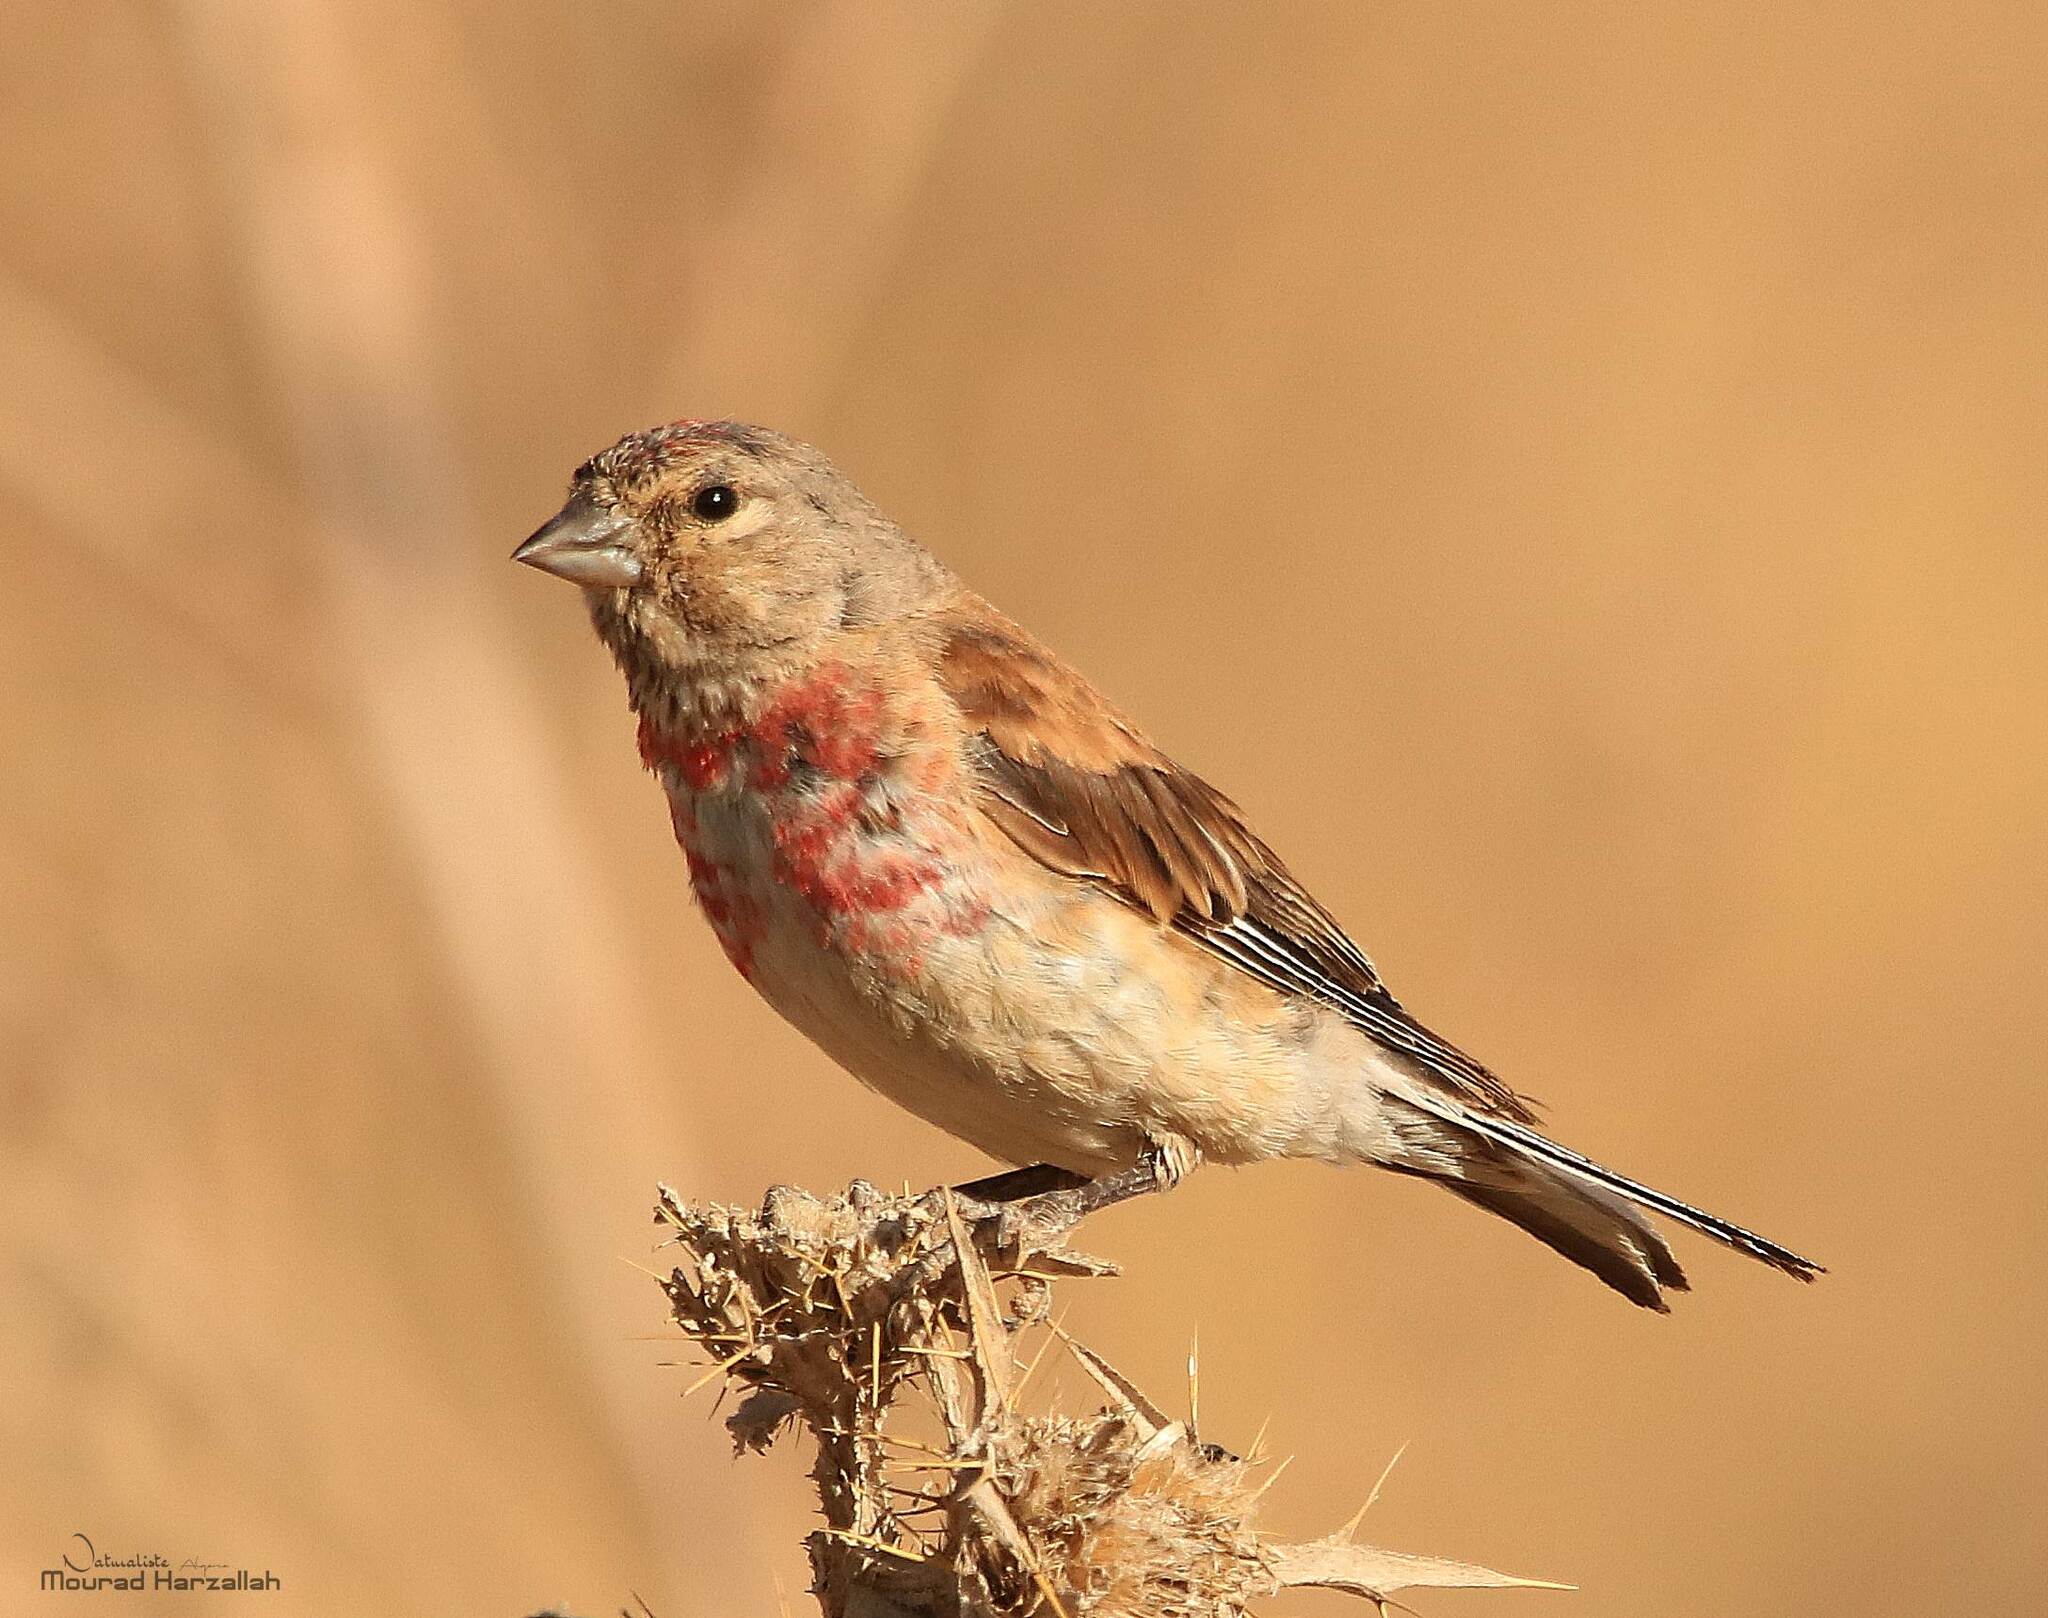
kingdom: Animalia
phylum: Chordata
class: Aves
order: Passeriformes
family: Fringillidae
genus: Linaria
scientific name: Linaria cannabina
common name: Common linnet
